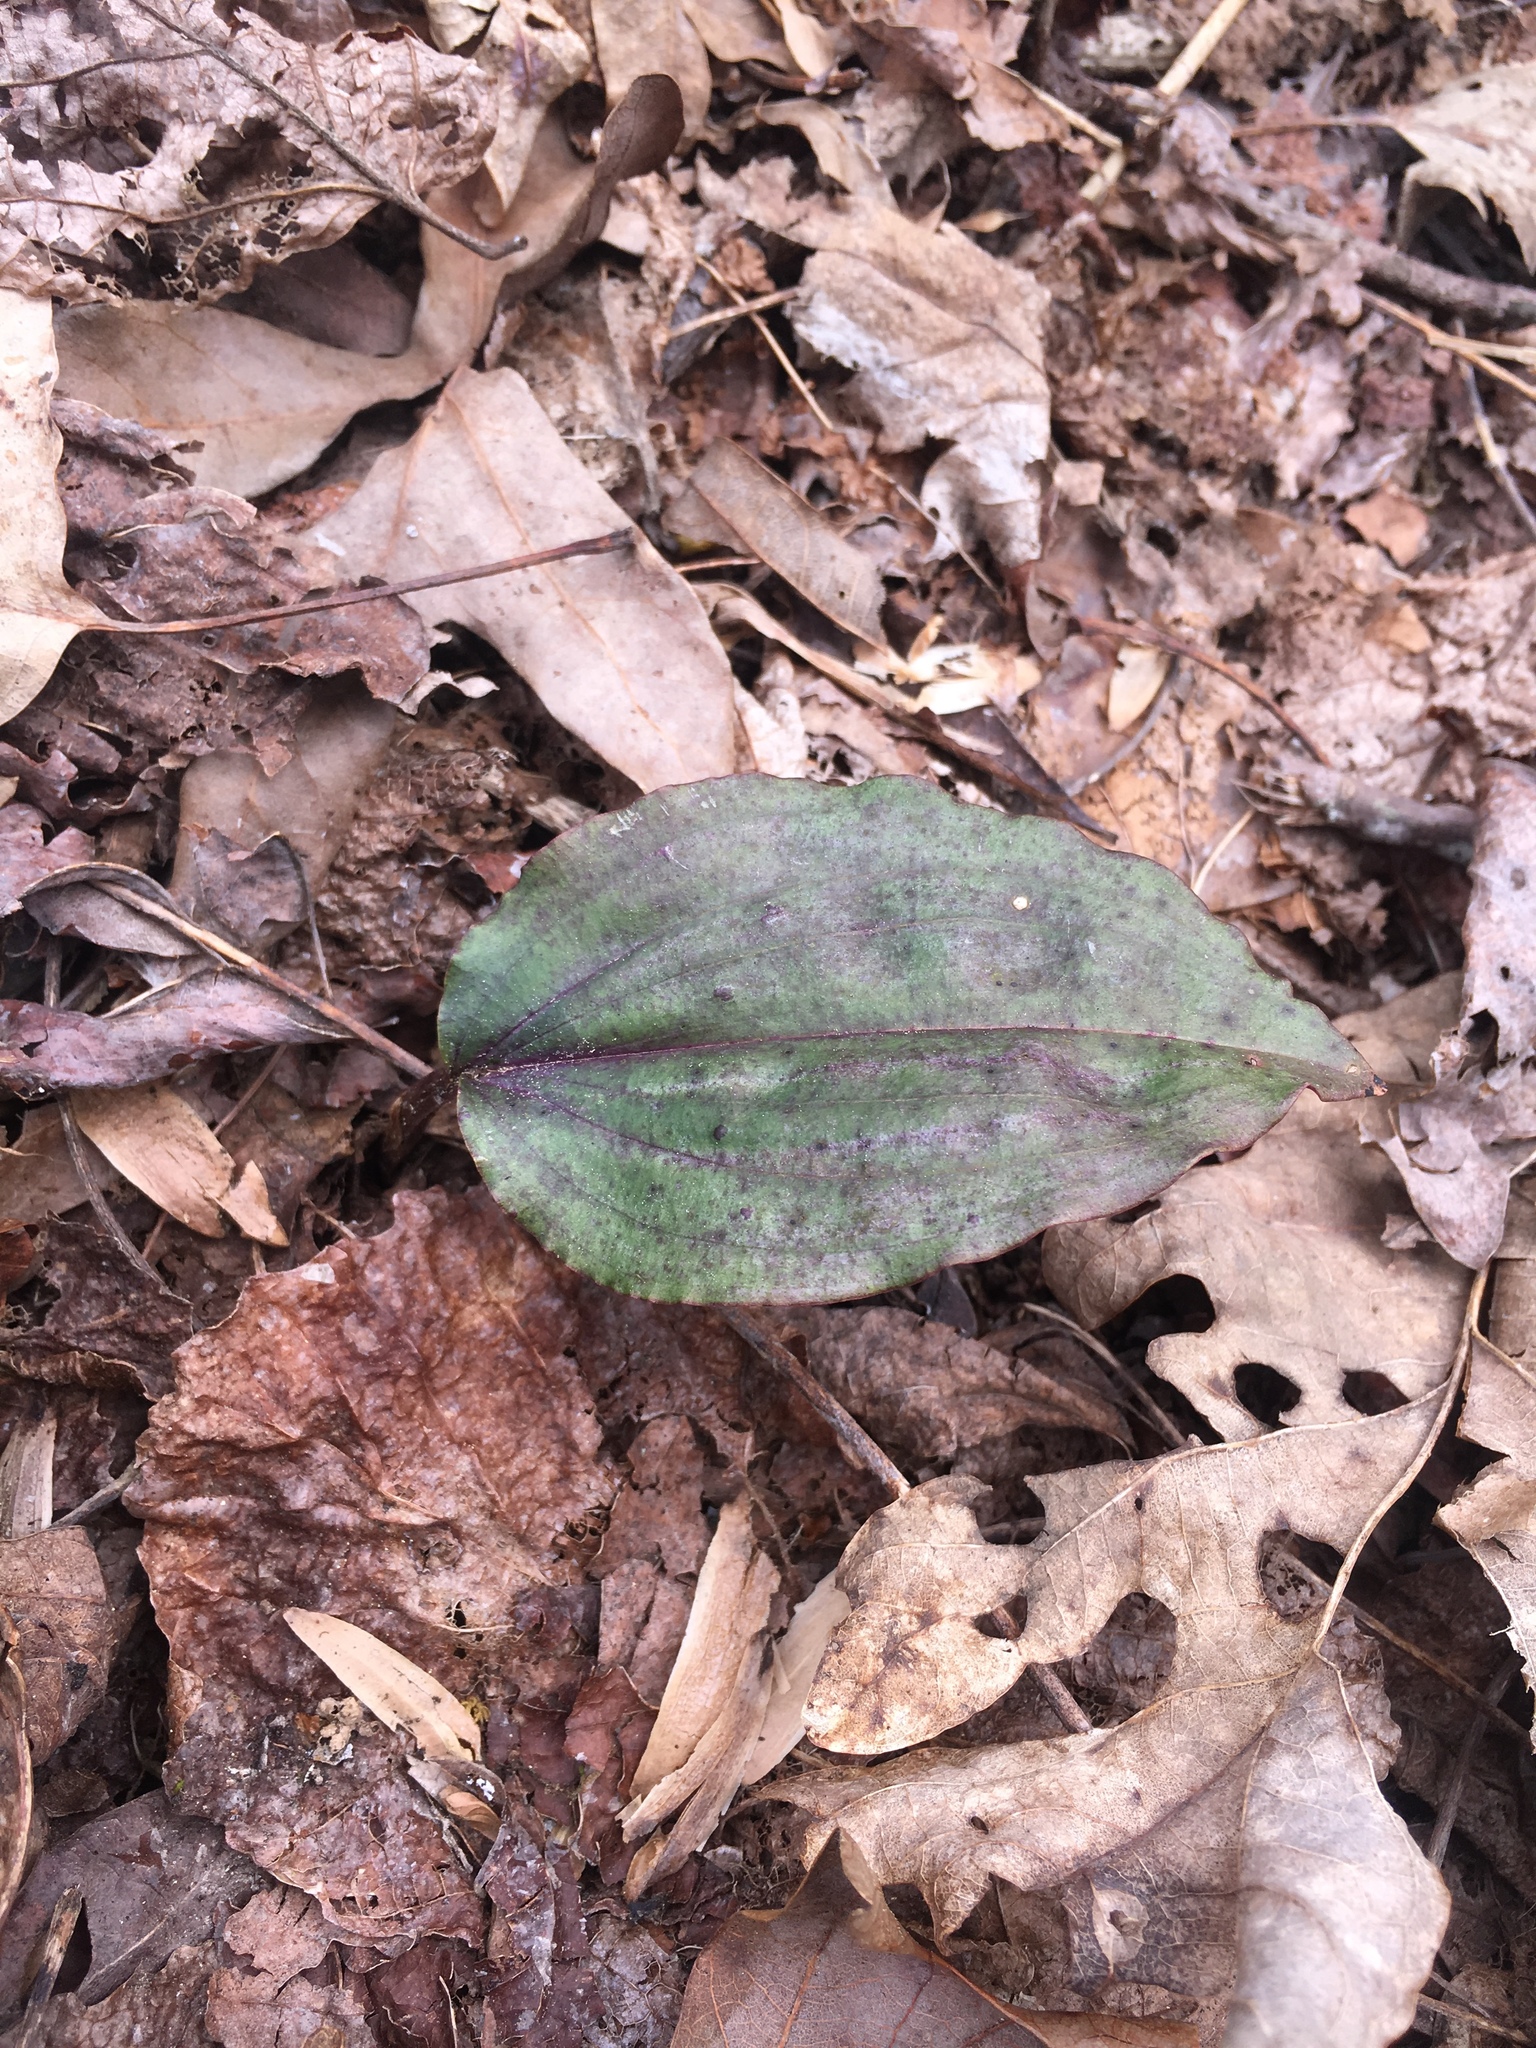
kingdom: Plantae
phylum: Tracheophyta
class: Liliopsida
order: Asparagales
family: Orchidaceae
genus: Tipularia
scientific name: Tipularia discolor
